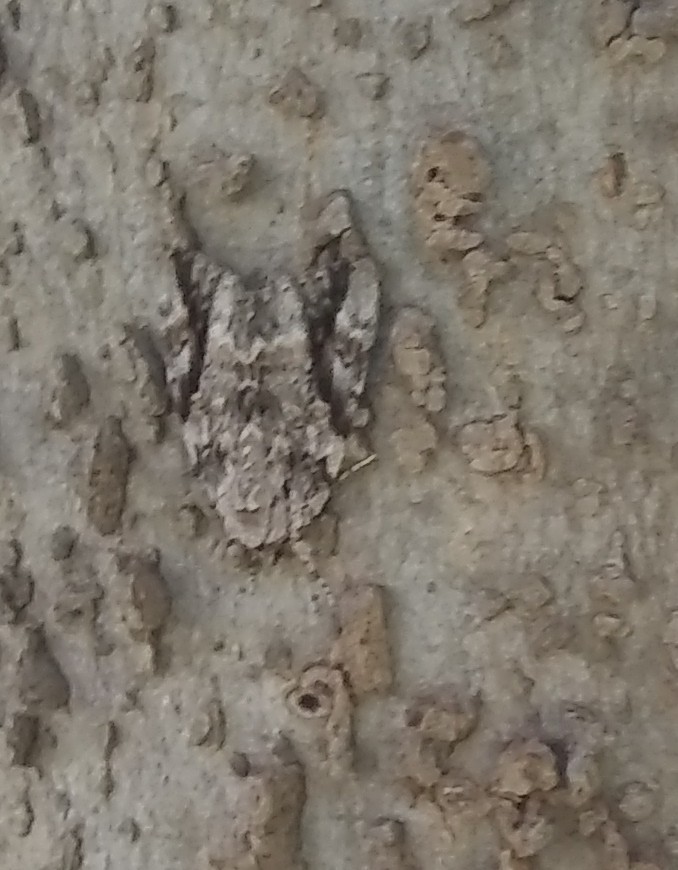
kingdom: Animalia
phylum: Arthropoda
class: Insecta
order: Lepidoptera
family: Erebidae
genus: Catocala
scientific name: Catocala maestosa
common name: Sad underwing
